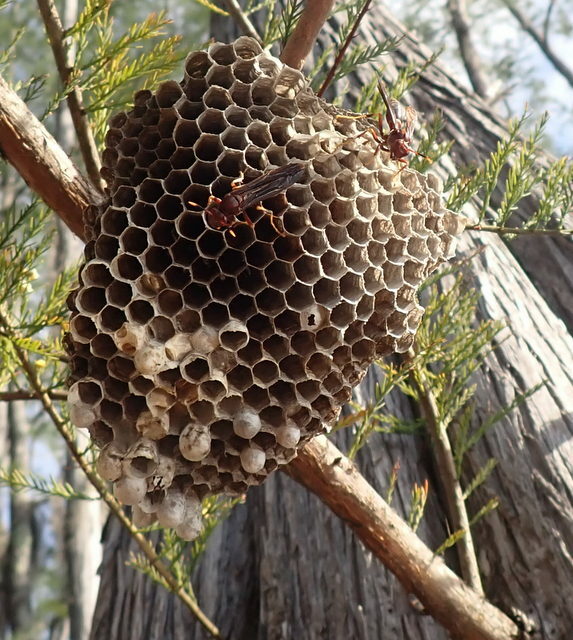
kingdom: Animalia
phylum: Arthropoda
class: Insecta
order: Hymenoptera
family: Eumenidae
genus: Polistes
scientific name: Polistes annularis
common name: Ringed paper wasp
